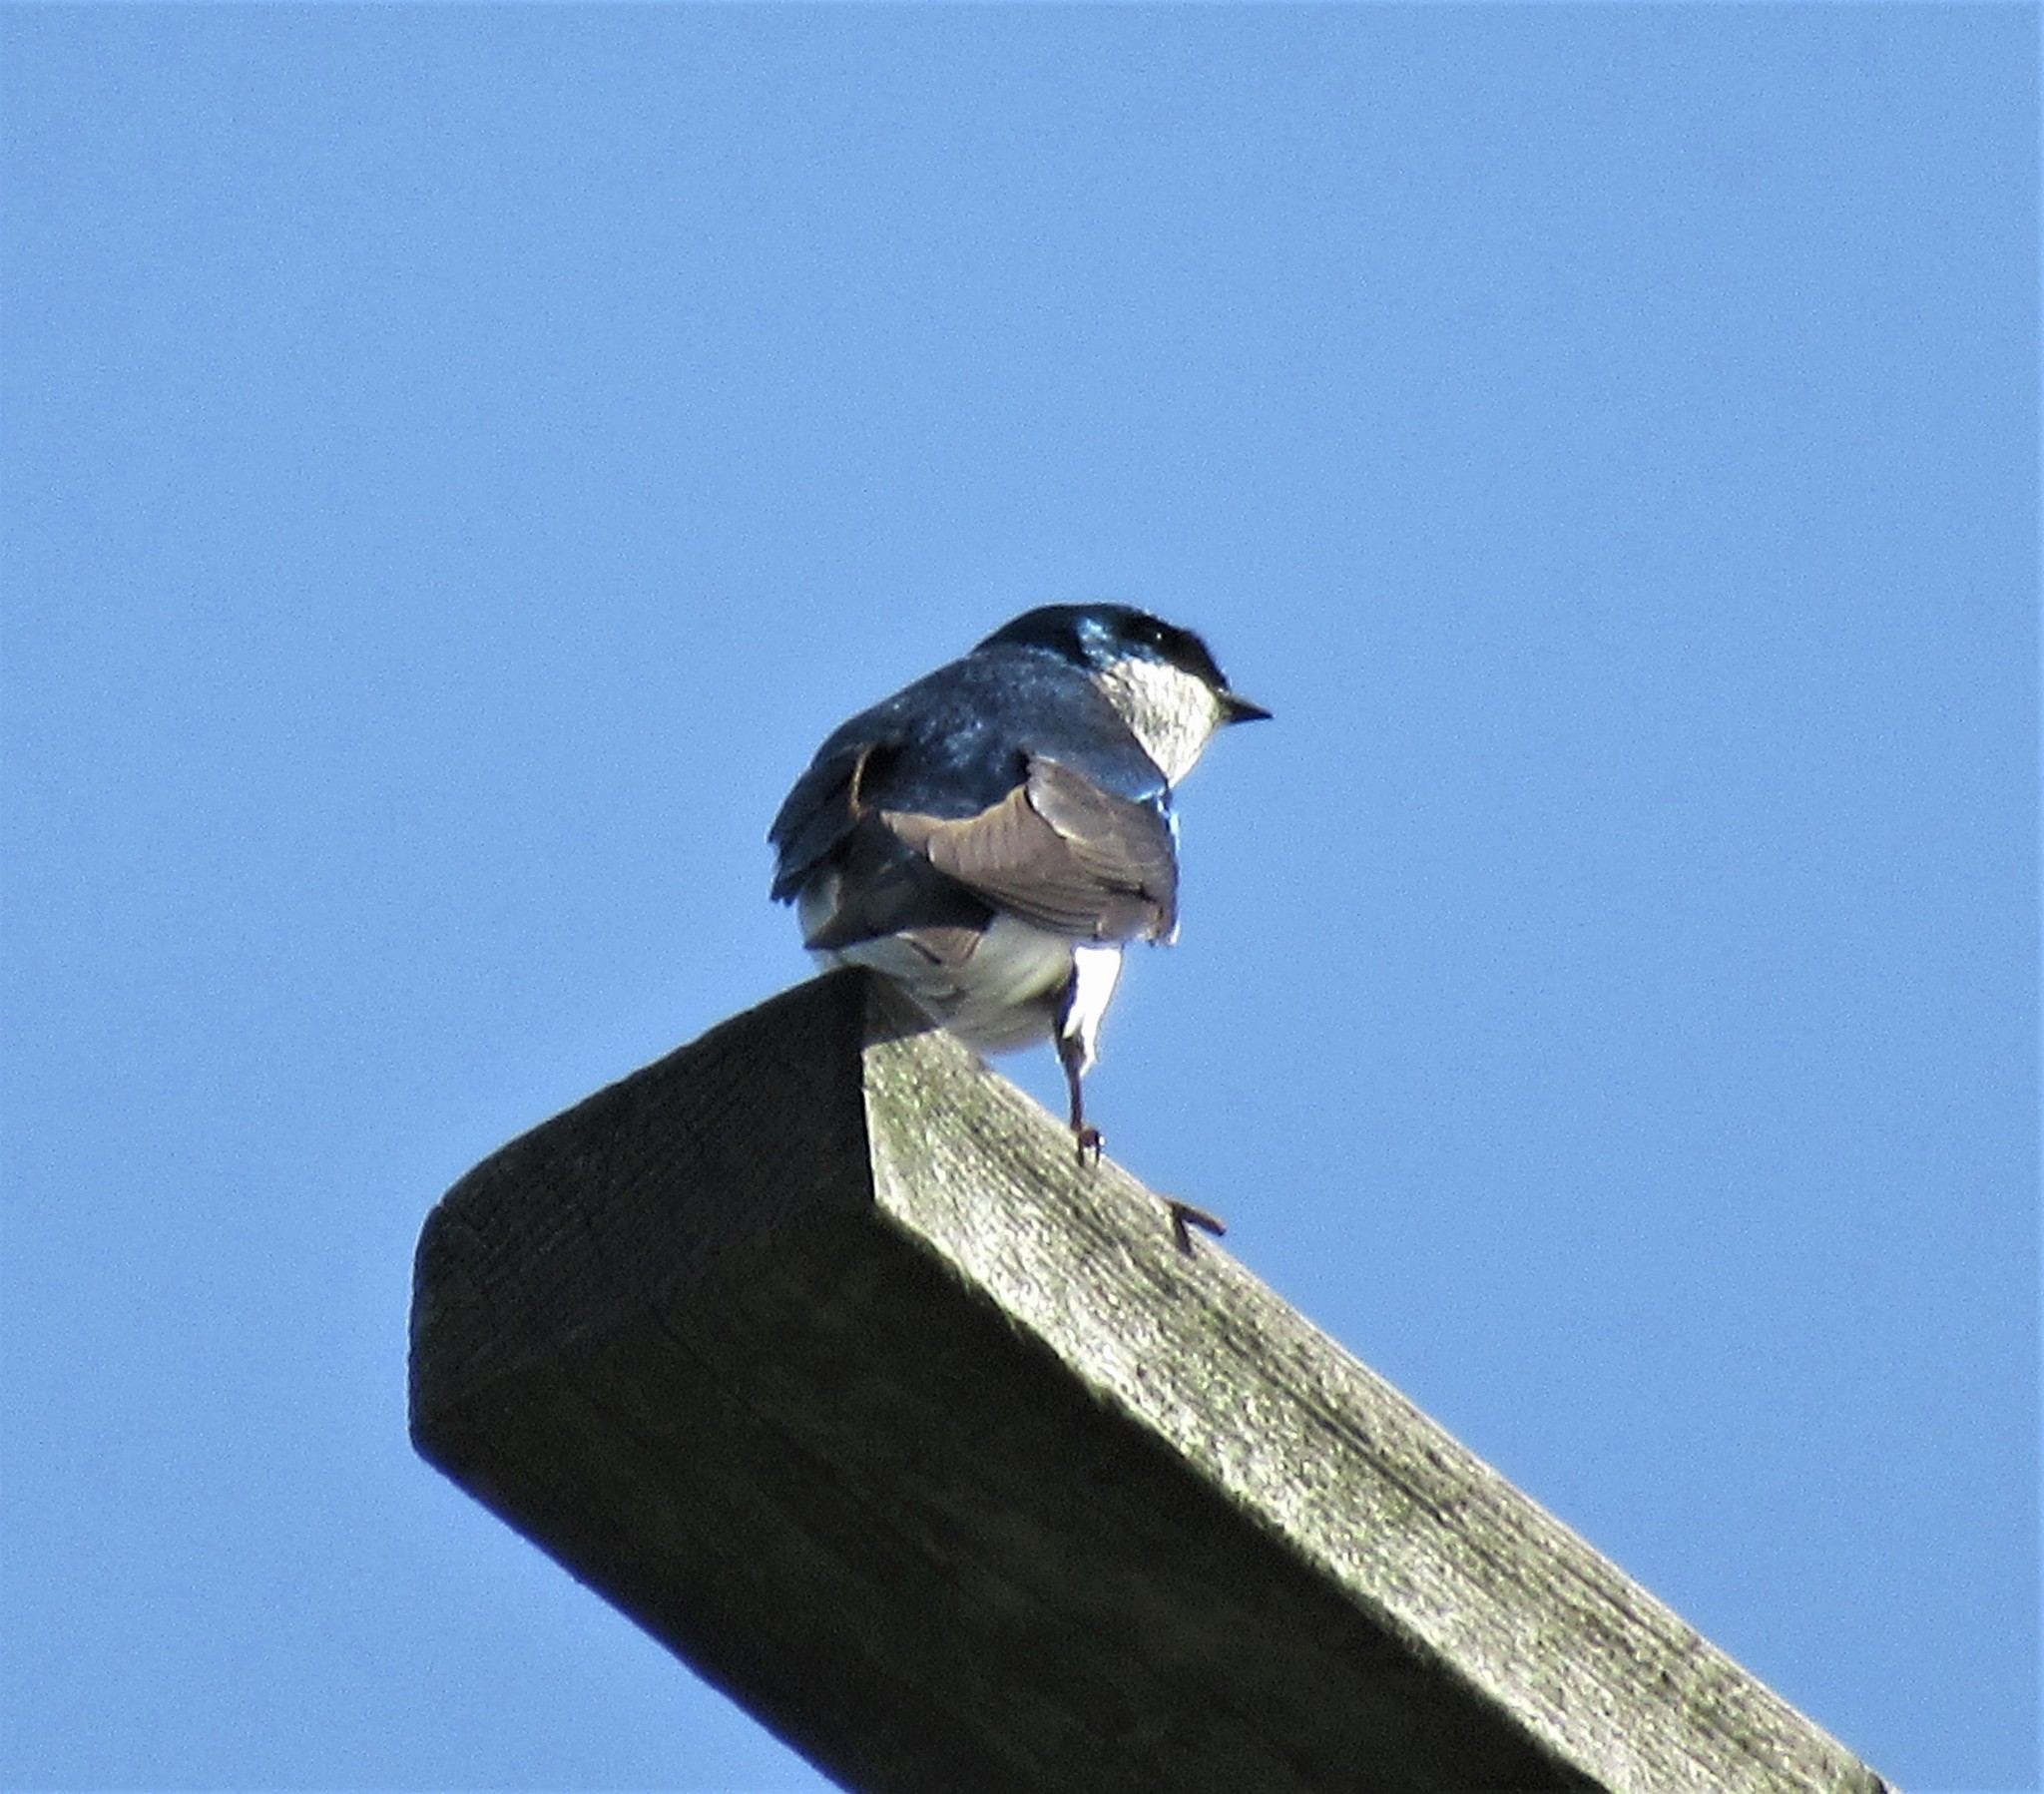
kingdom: Animalia
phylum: Chordata
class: Aves
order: Passeriformes
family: Hirundinidae
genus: Tachycineta
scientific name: Tachycineta bicolor
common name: Tree swallow
